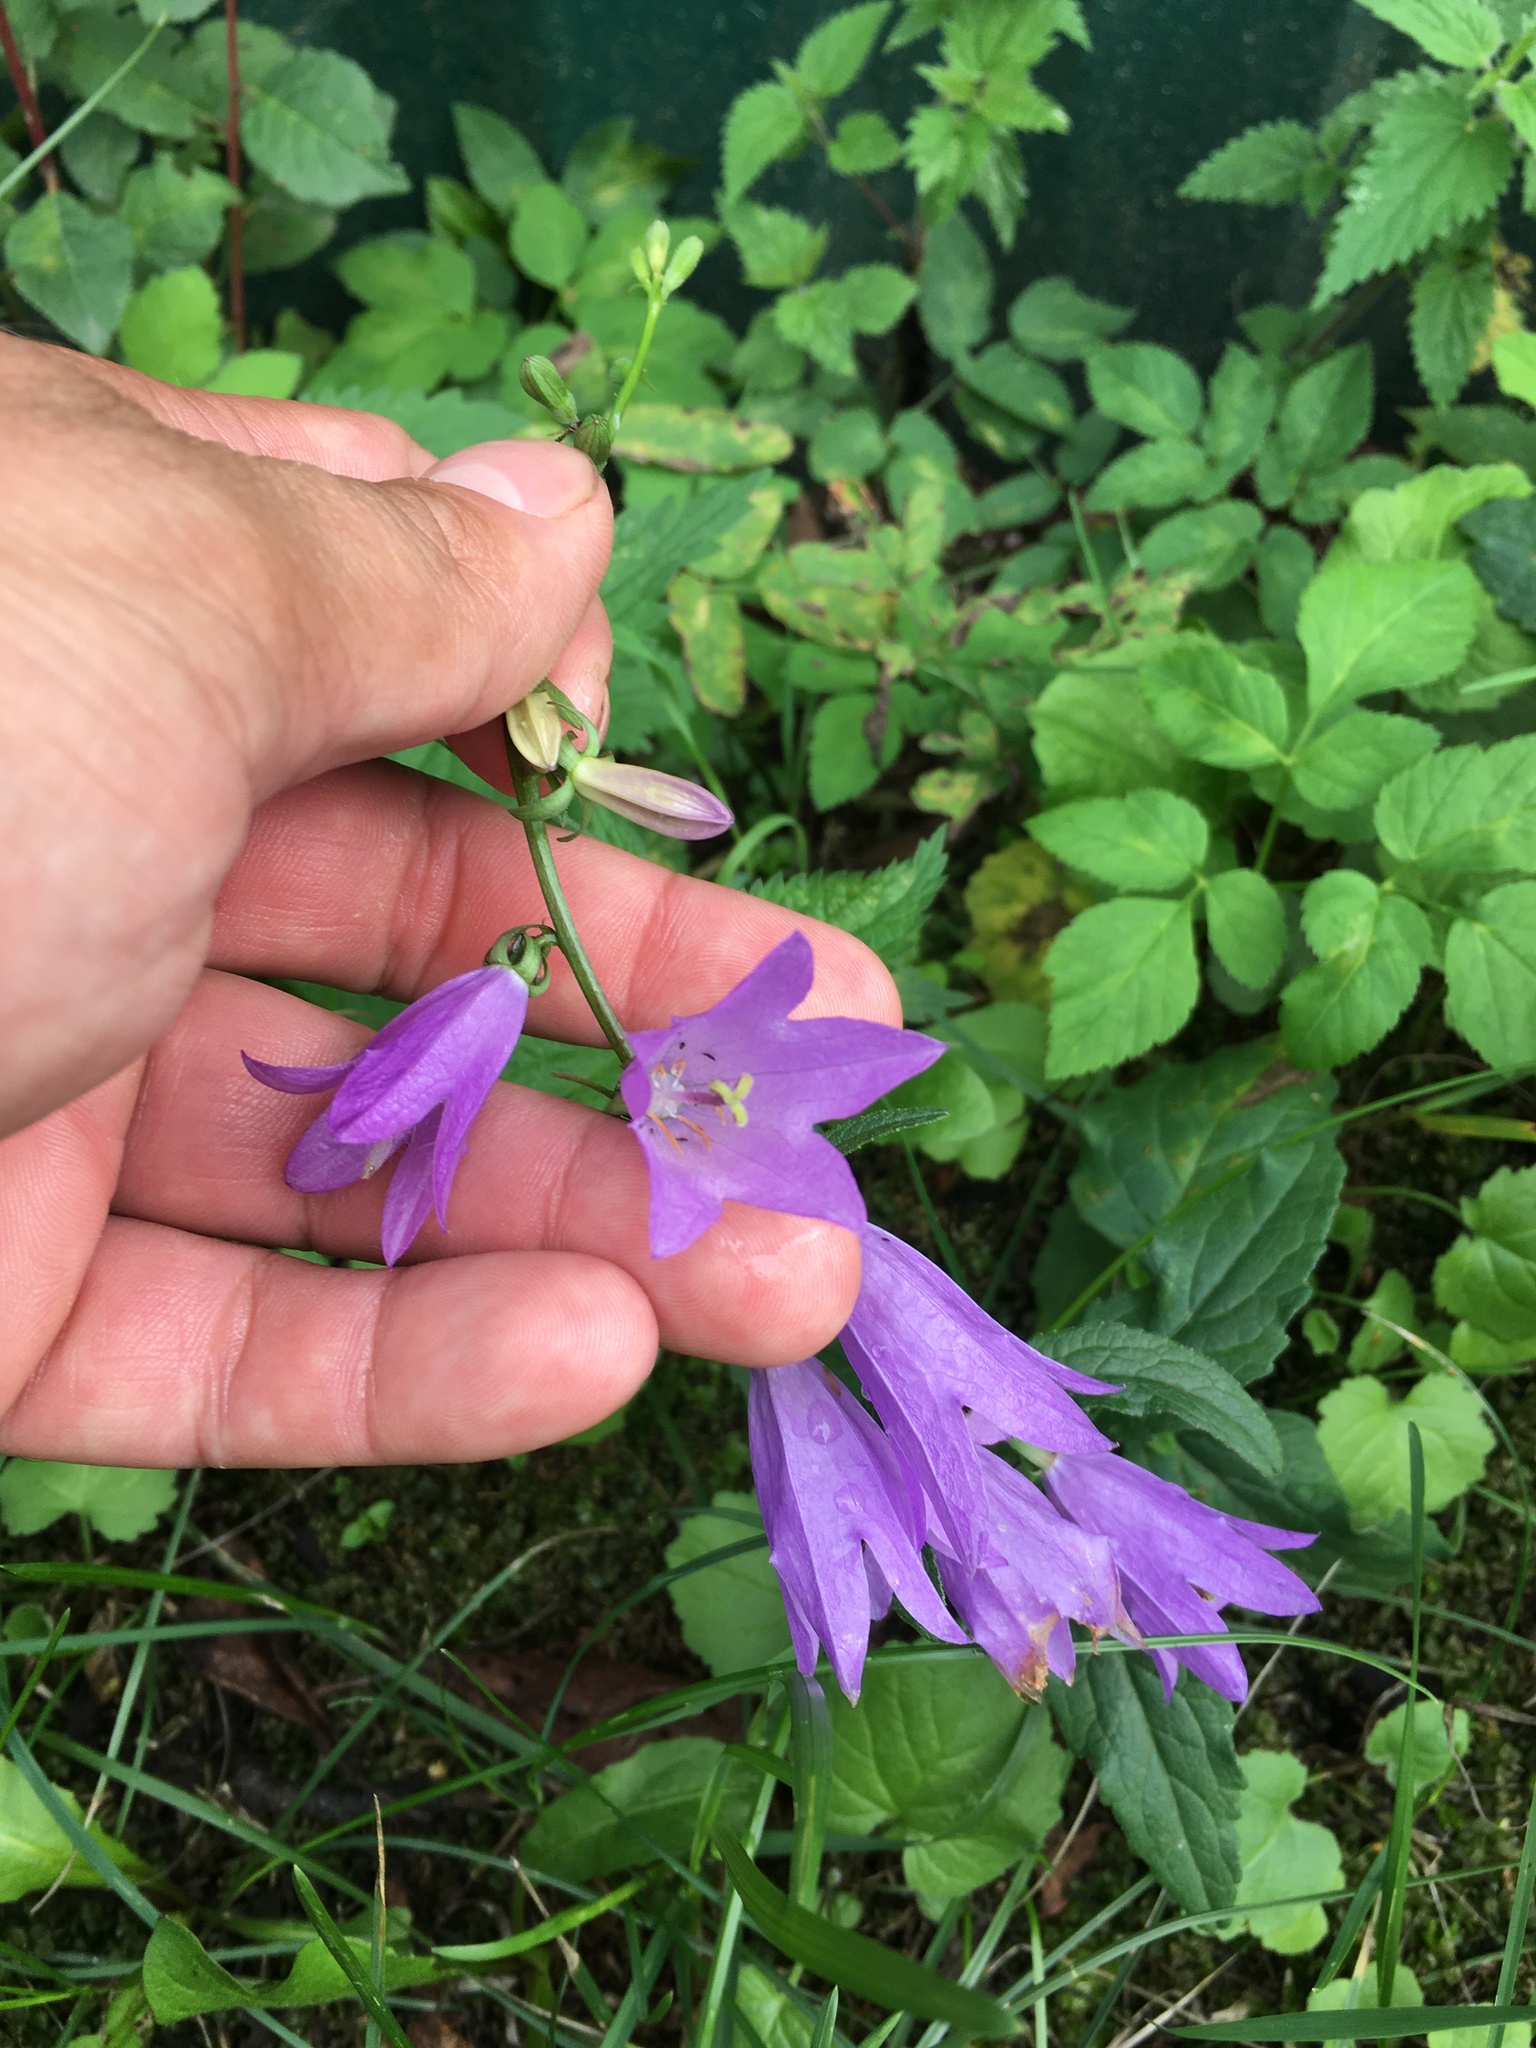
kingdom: Plantae
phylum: Tracheophyta
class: Magnoliopsida
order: Asterales
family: Campanulaceae
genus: Campanula
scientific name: Campanula rapunculoides
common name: Creeping bellflower
